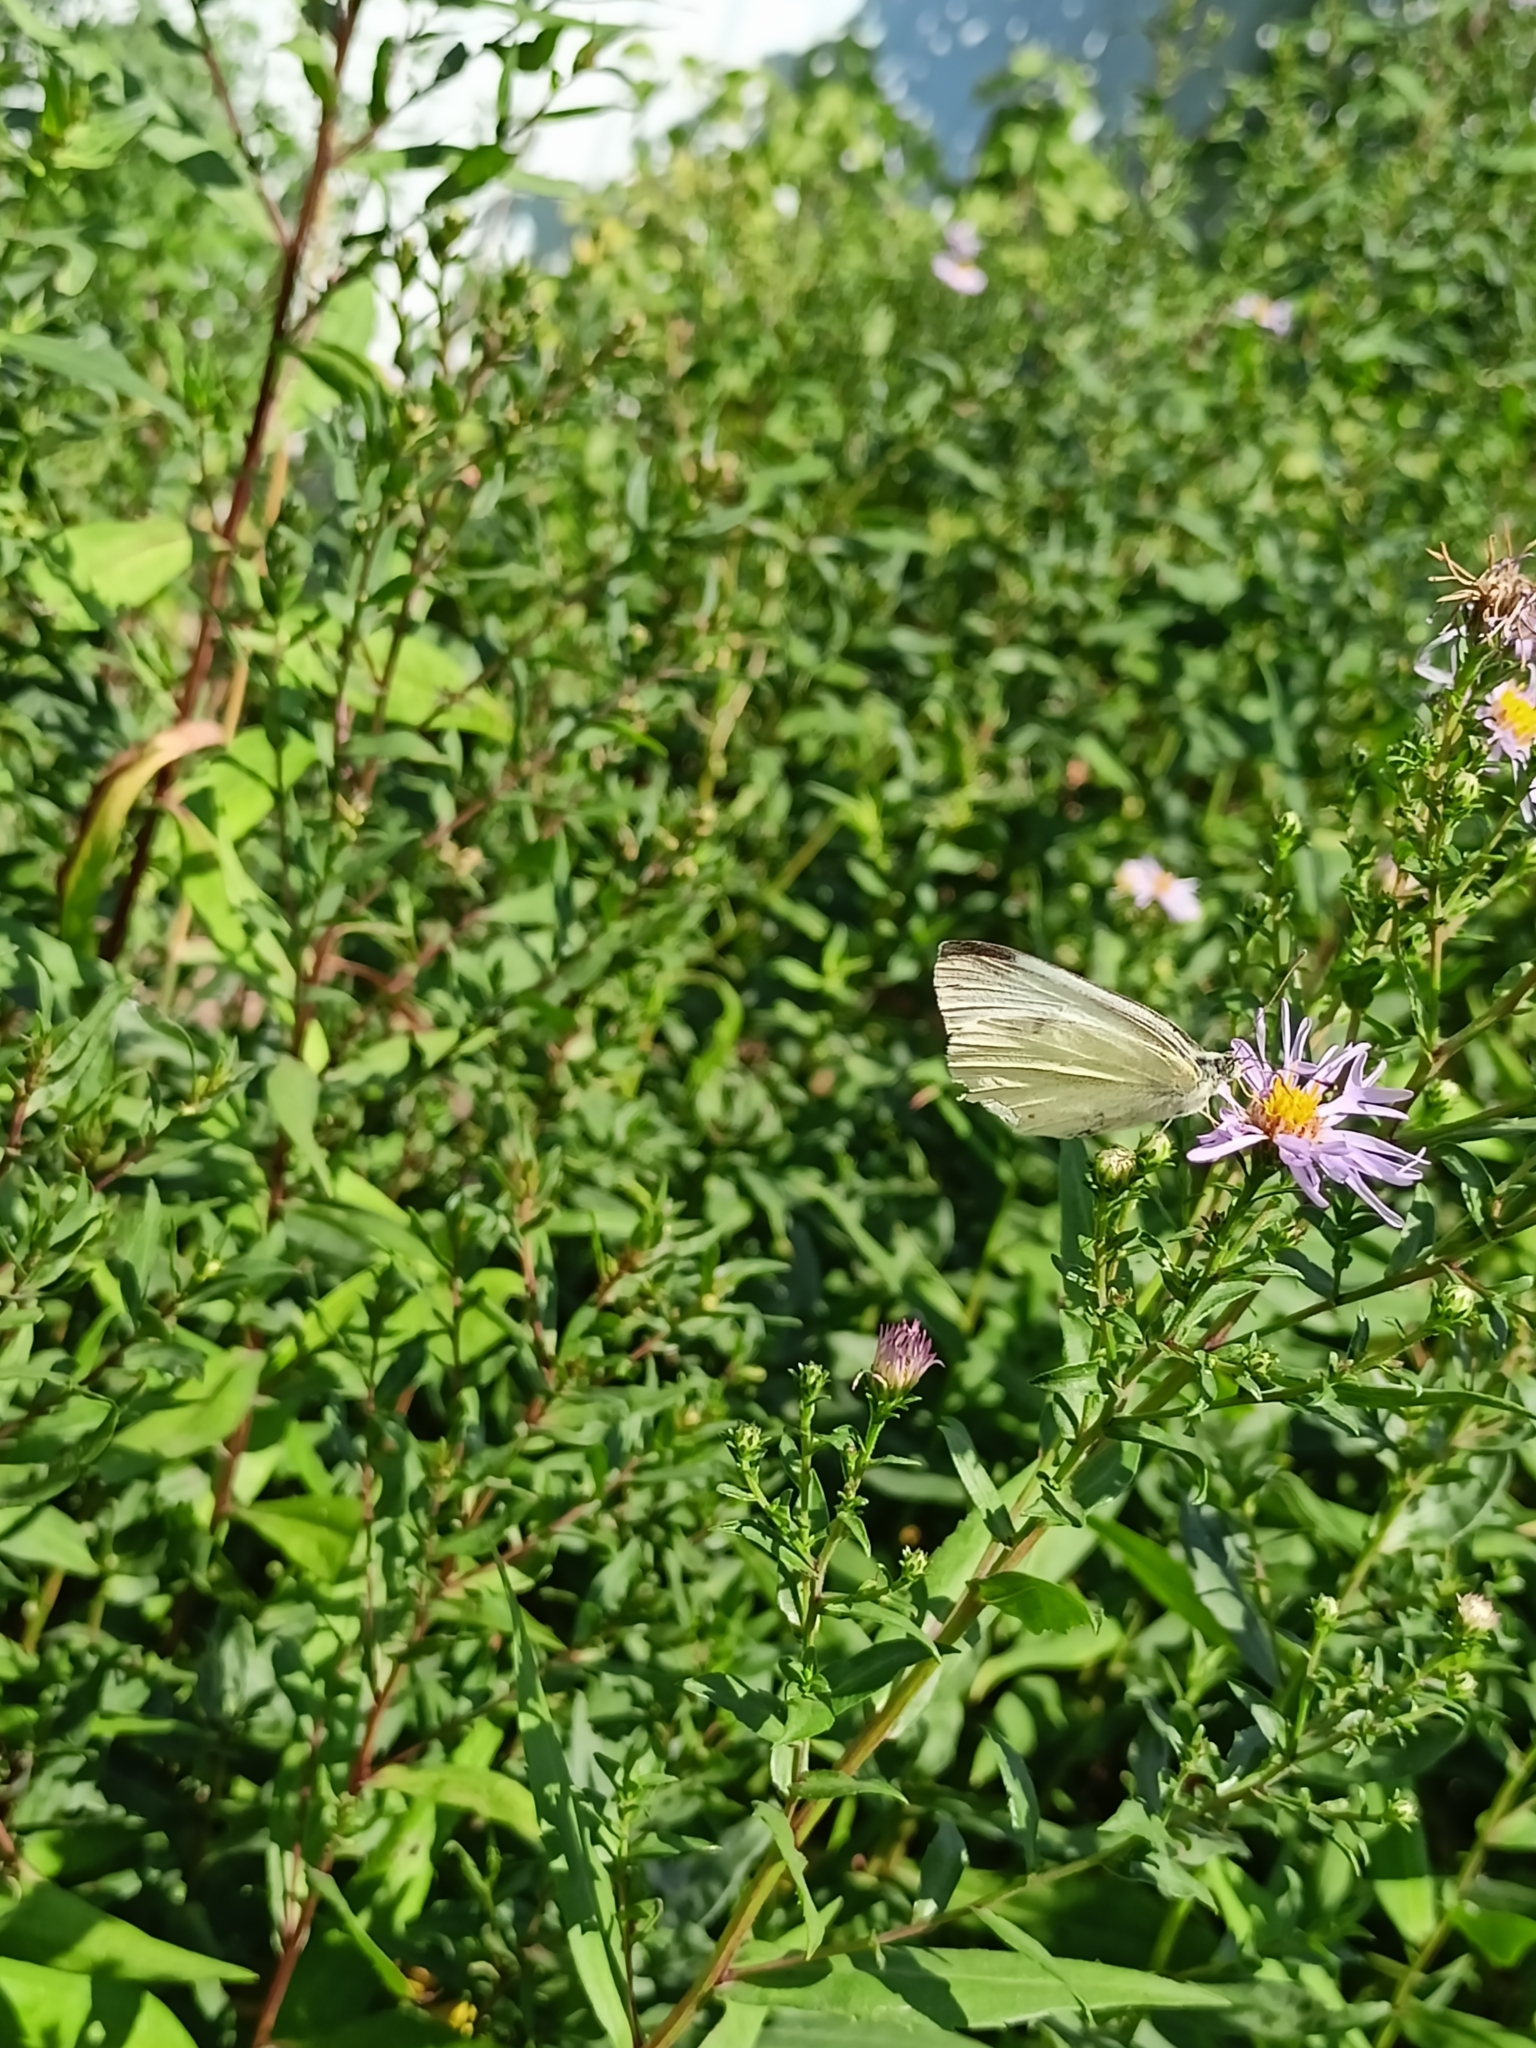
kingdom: Animalia
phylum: Arthropoda
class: Insecta
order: Lepidoptera
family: Pieridae
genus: Pieris
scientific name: Pieris rapae
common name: Small white
